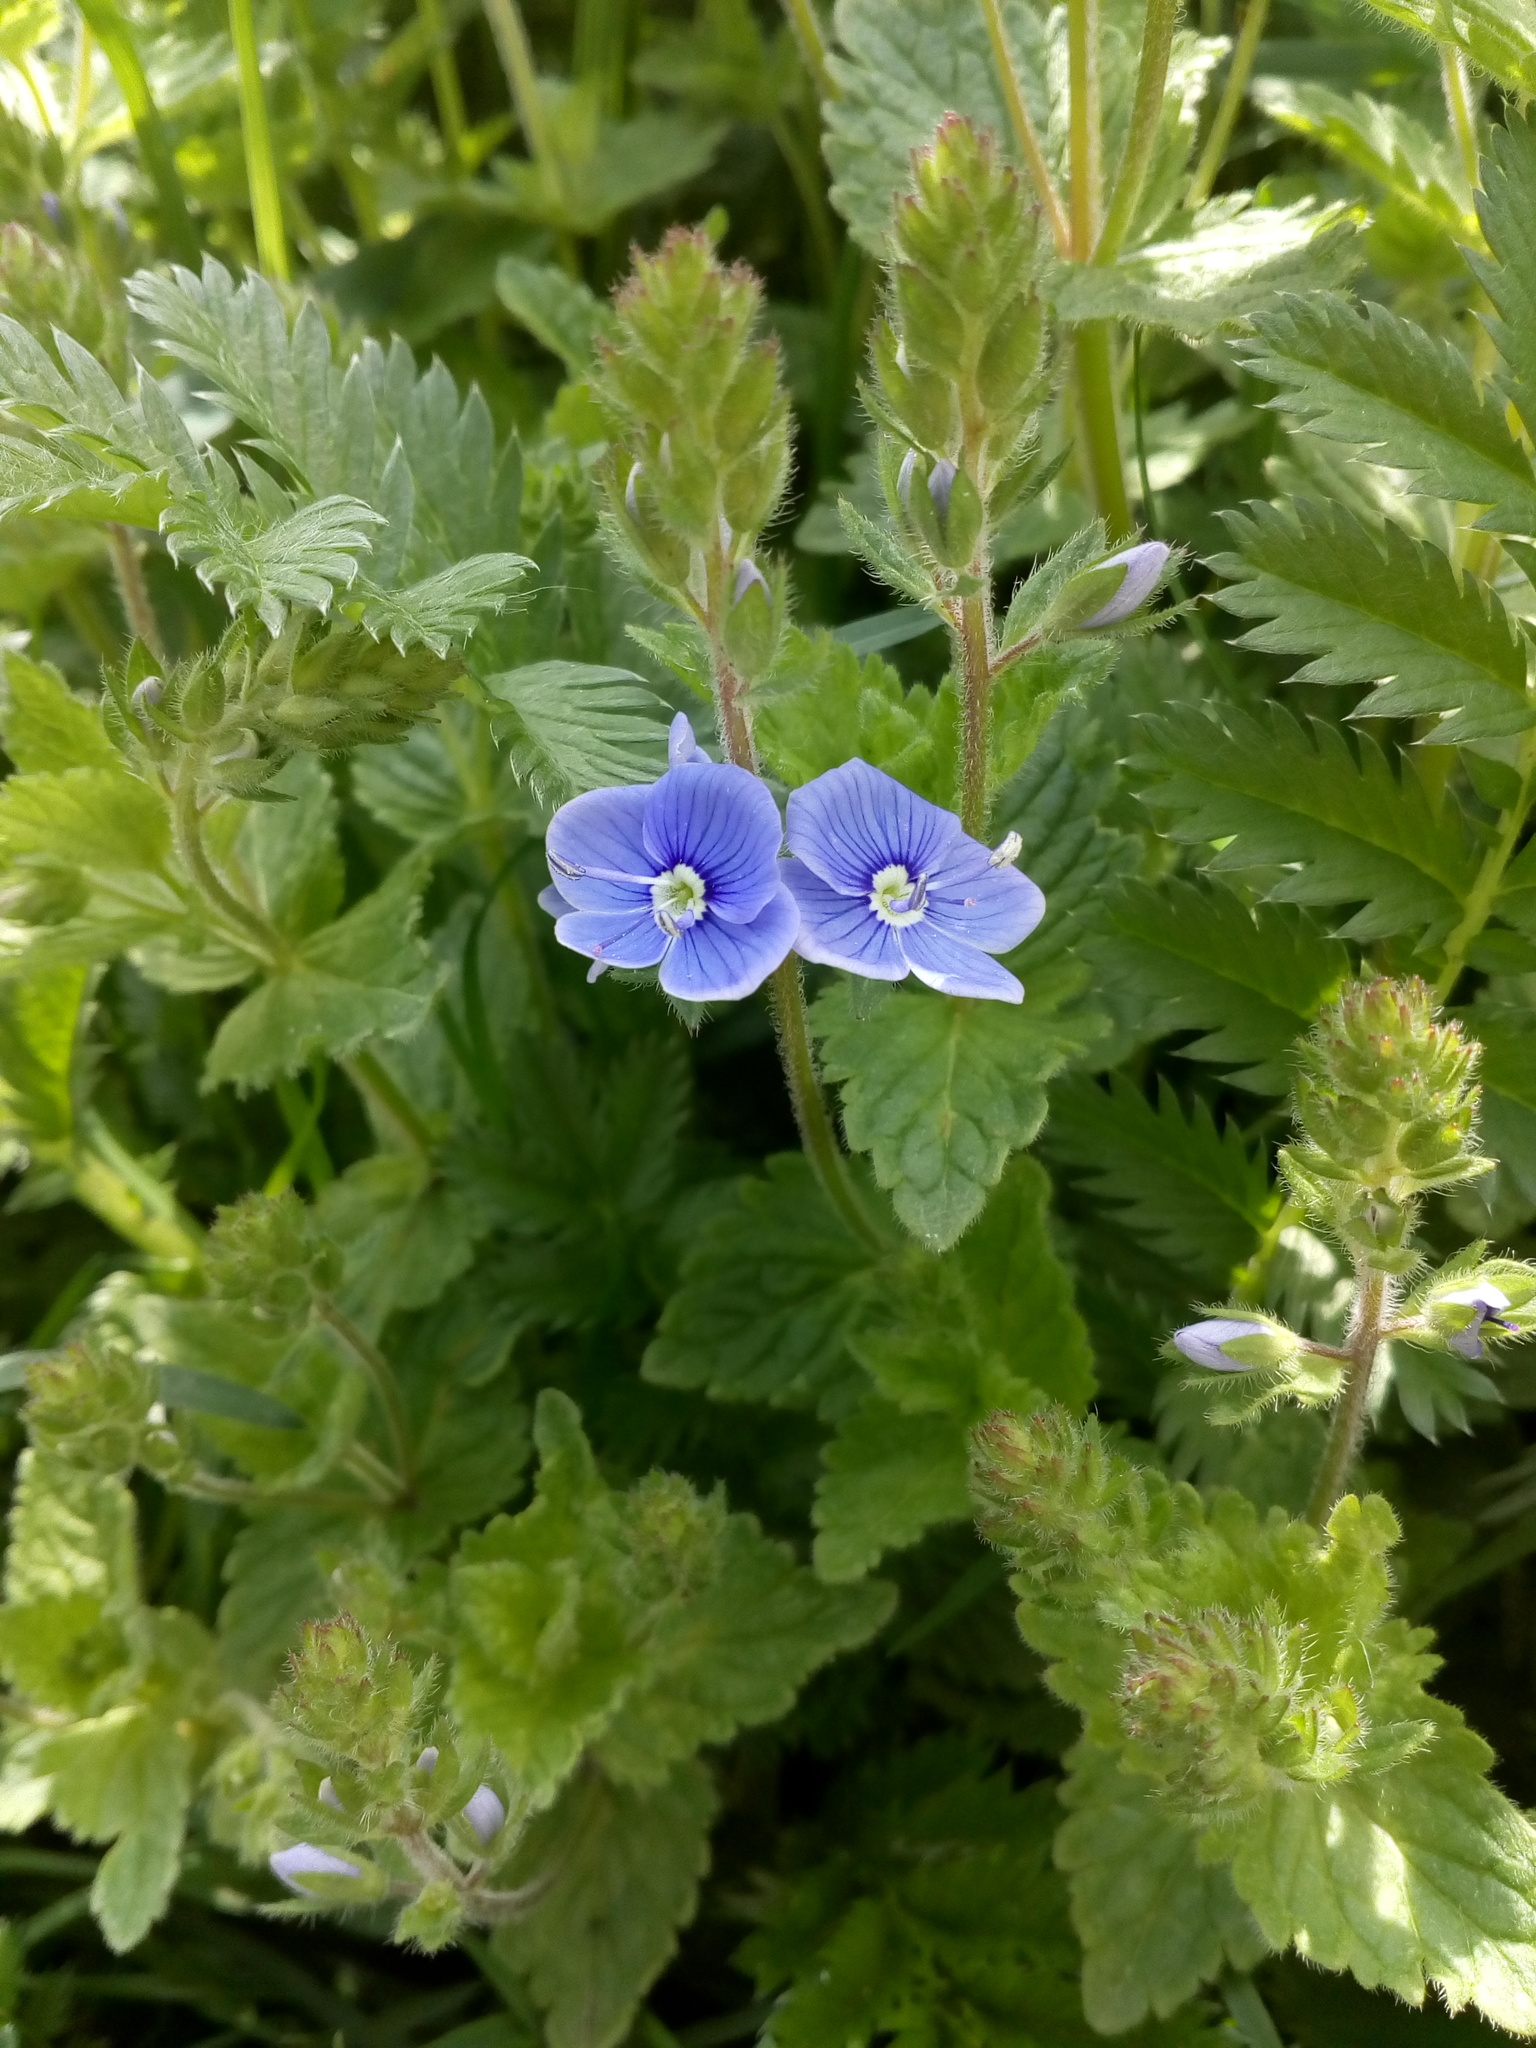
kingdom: Plantae
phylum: Tracheophyta
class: Magnoliopsida
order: Lamiales
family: Plantaginaceae
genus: Veronica
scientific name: Veronica chamaedrys
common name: Germander speedwell
